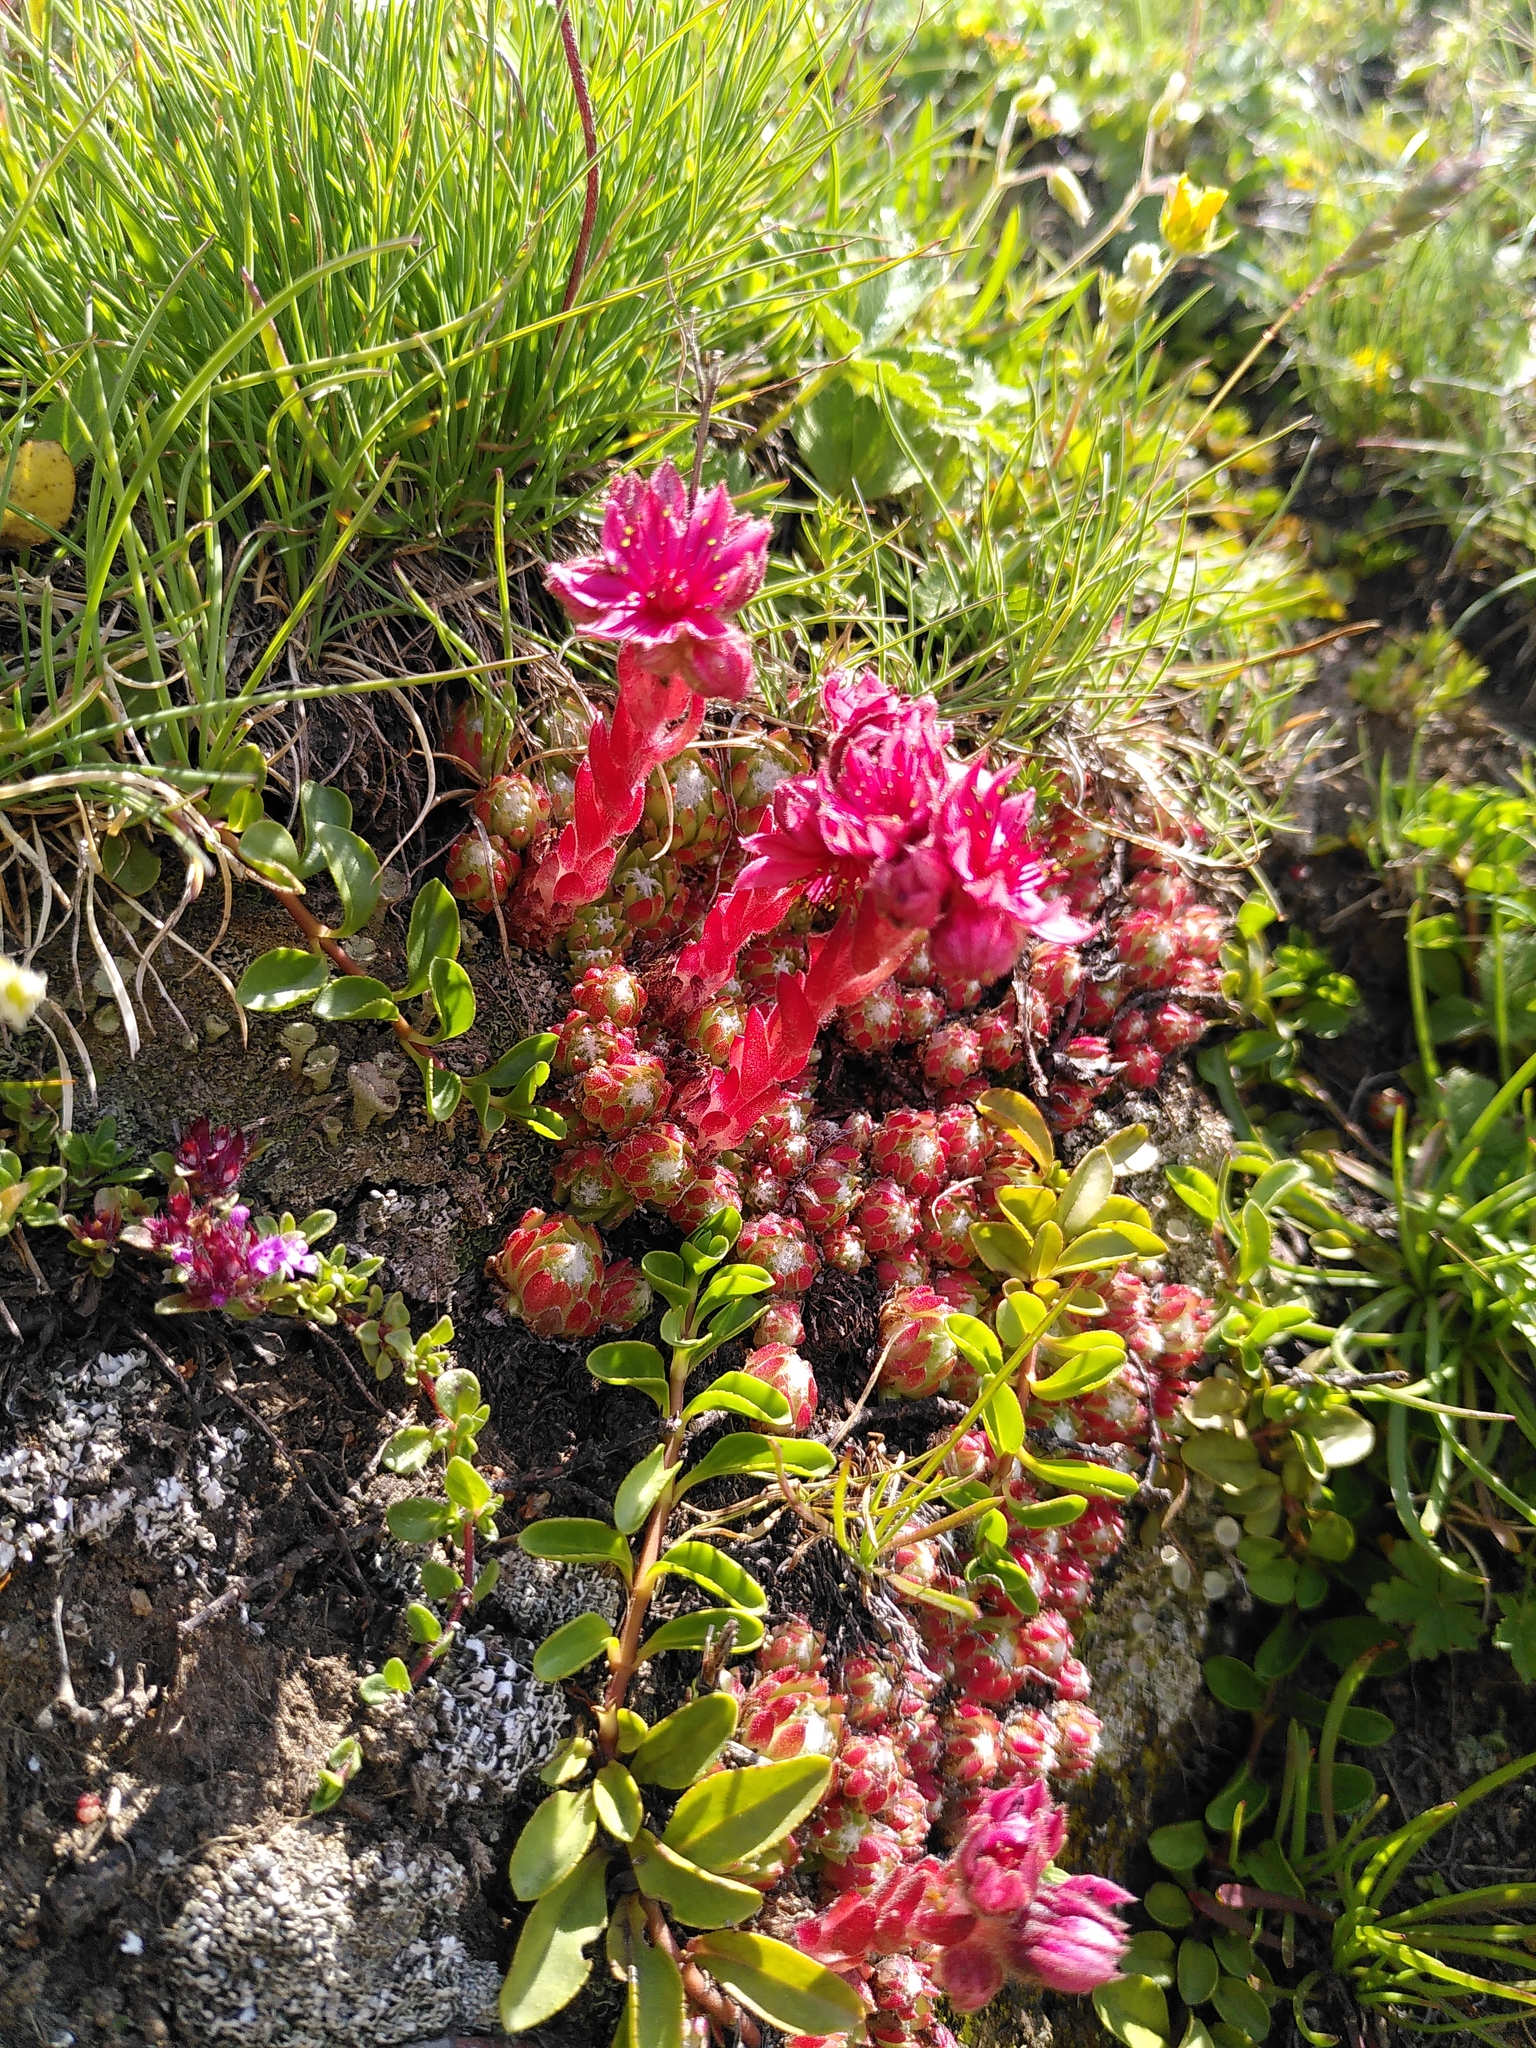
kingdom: Plantae
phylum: Tracheophyta
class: Magnoliopsida
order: Saxifragales
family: Crassulaceae
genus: Sempervivum
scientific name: Sempervivum arachnoideum
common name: Cobweb house-leek
